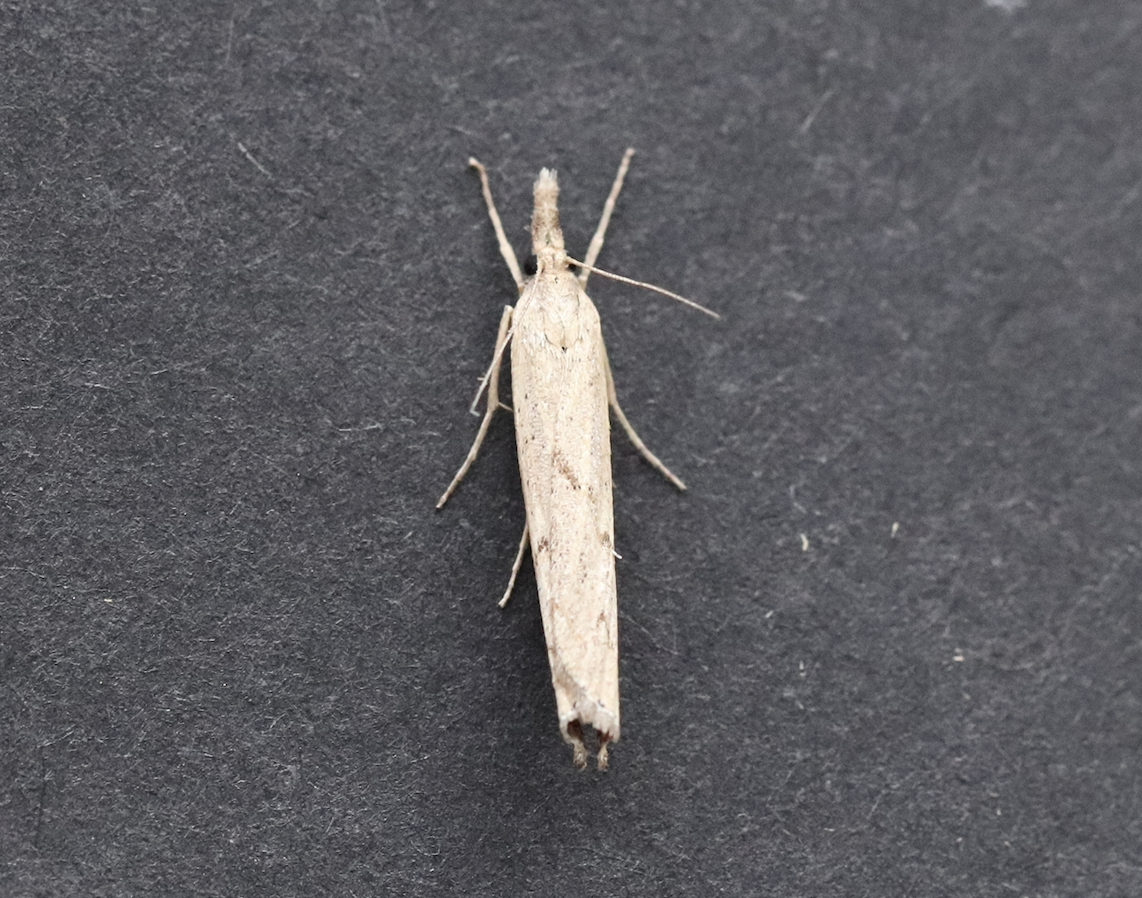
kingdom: Animalia
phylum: Arthropoda
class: Insecta
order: Lepidoptera
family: Crambidae
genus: Pediasia
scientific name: Pediasia contaminella
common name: Waste grass-veneer
